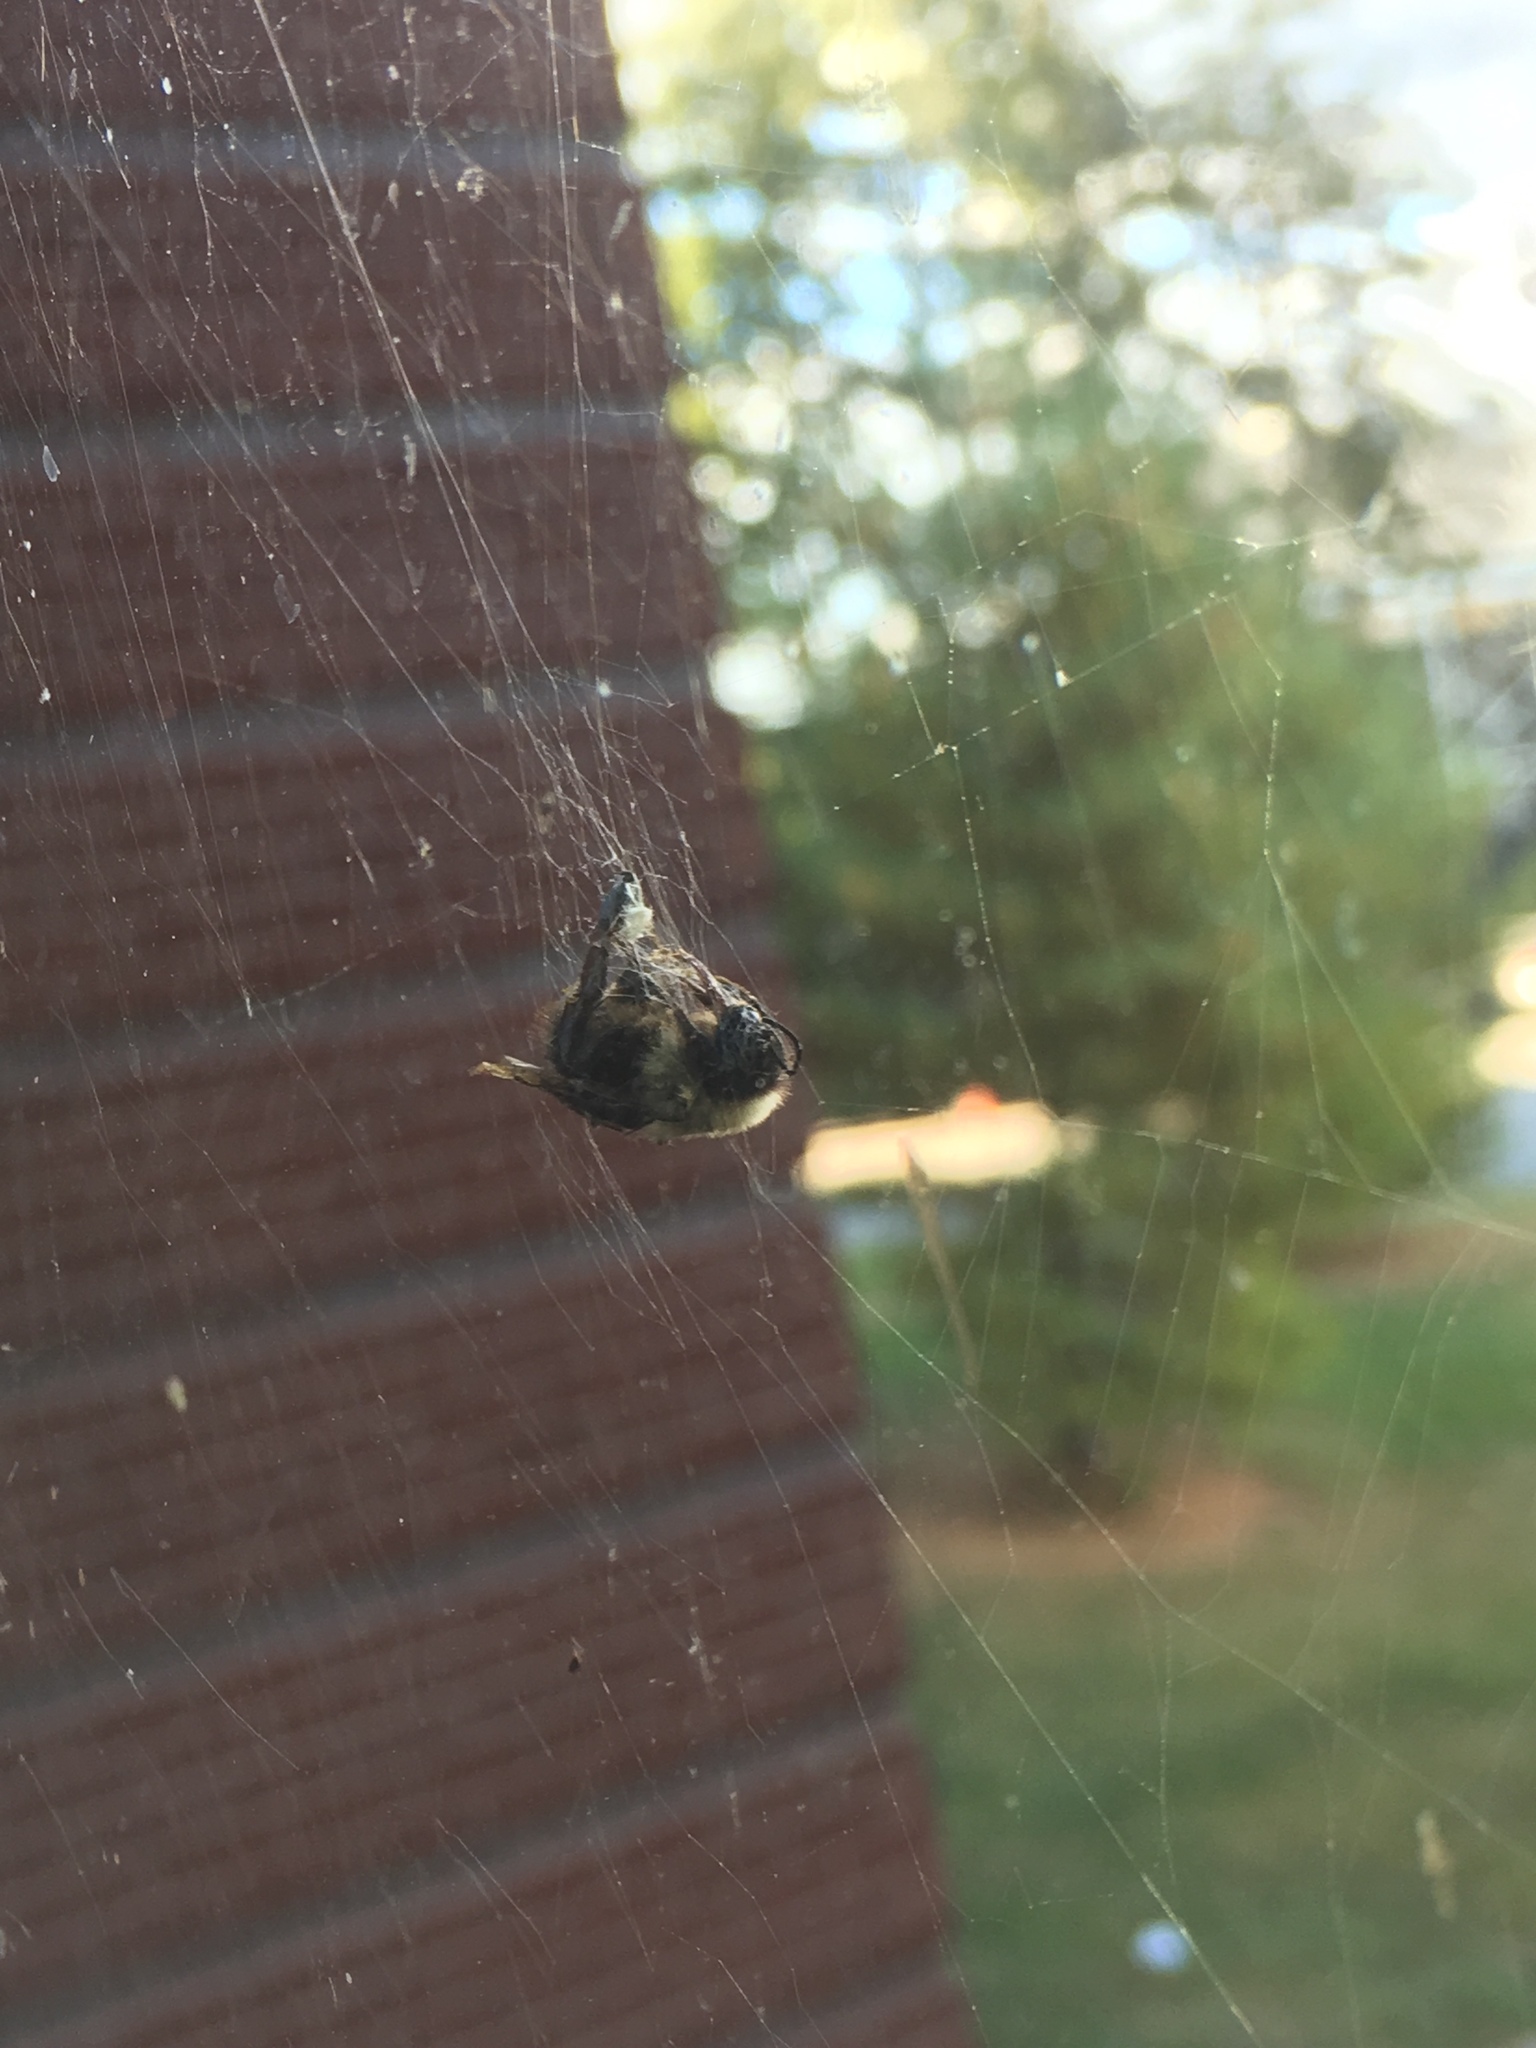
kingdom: Animalia
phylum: Arthropoda
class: Insecta
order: Hymenoptera
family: Apidae
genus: Bombus
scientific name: Bombus
